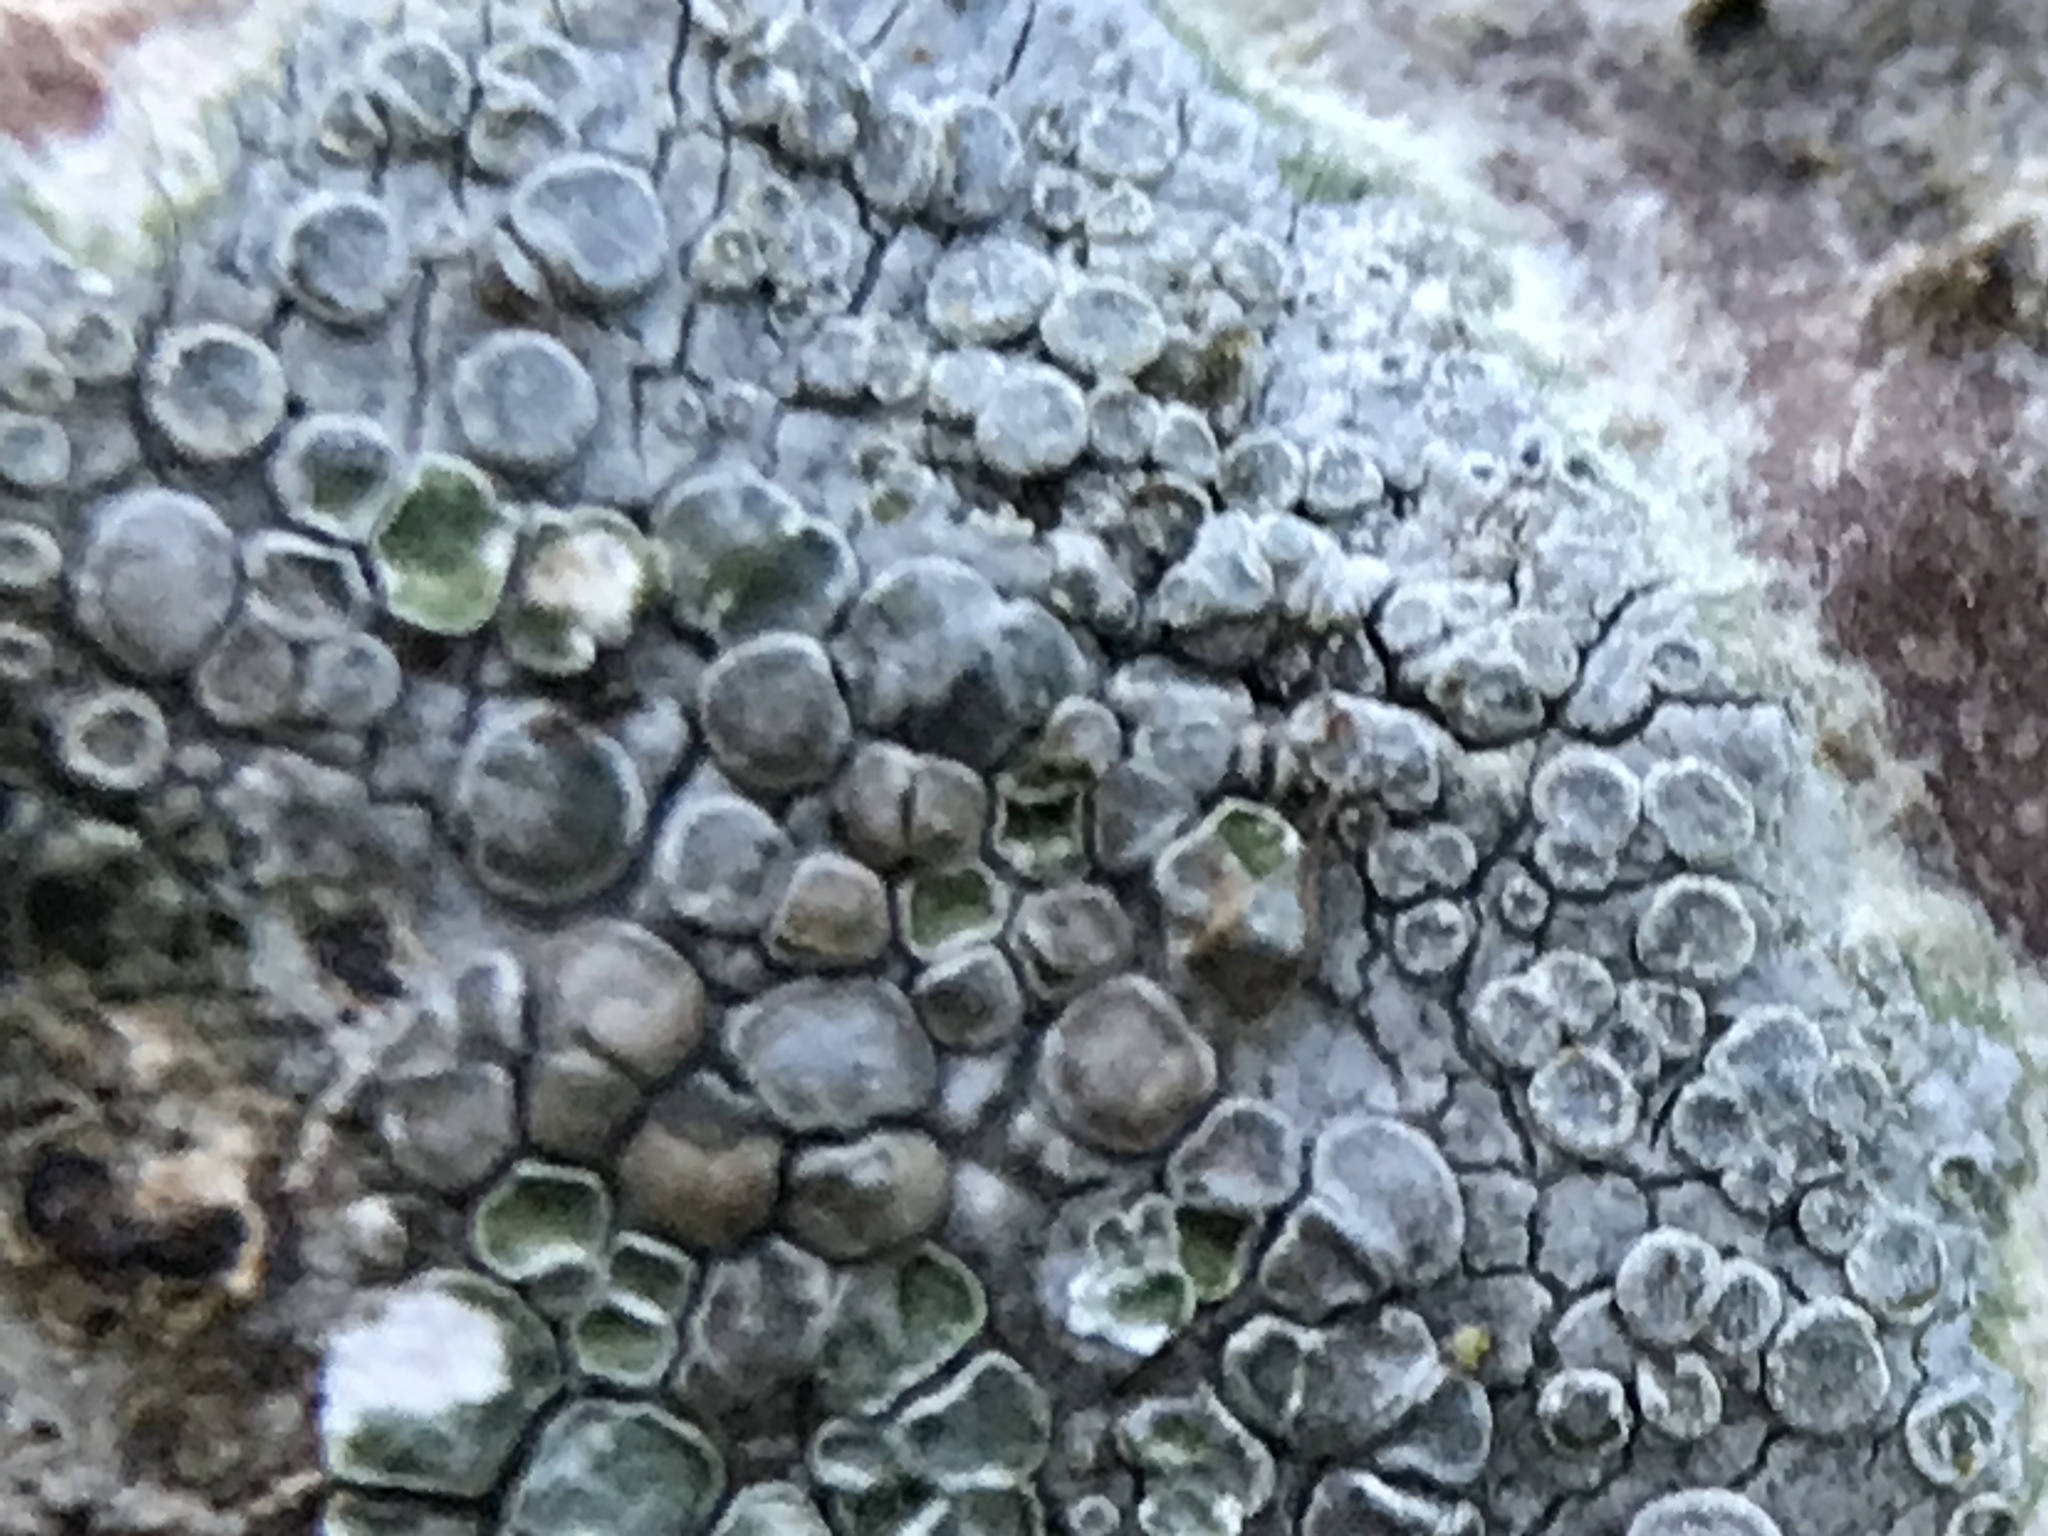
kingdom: Fungi
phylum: Ascomycota
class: Lecanoromycetes
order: Lecanorales
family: Lecanoraceae
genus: Glaucomaria
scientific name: Glaucomaria carpinea
